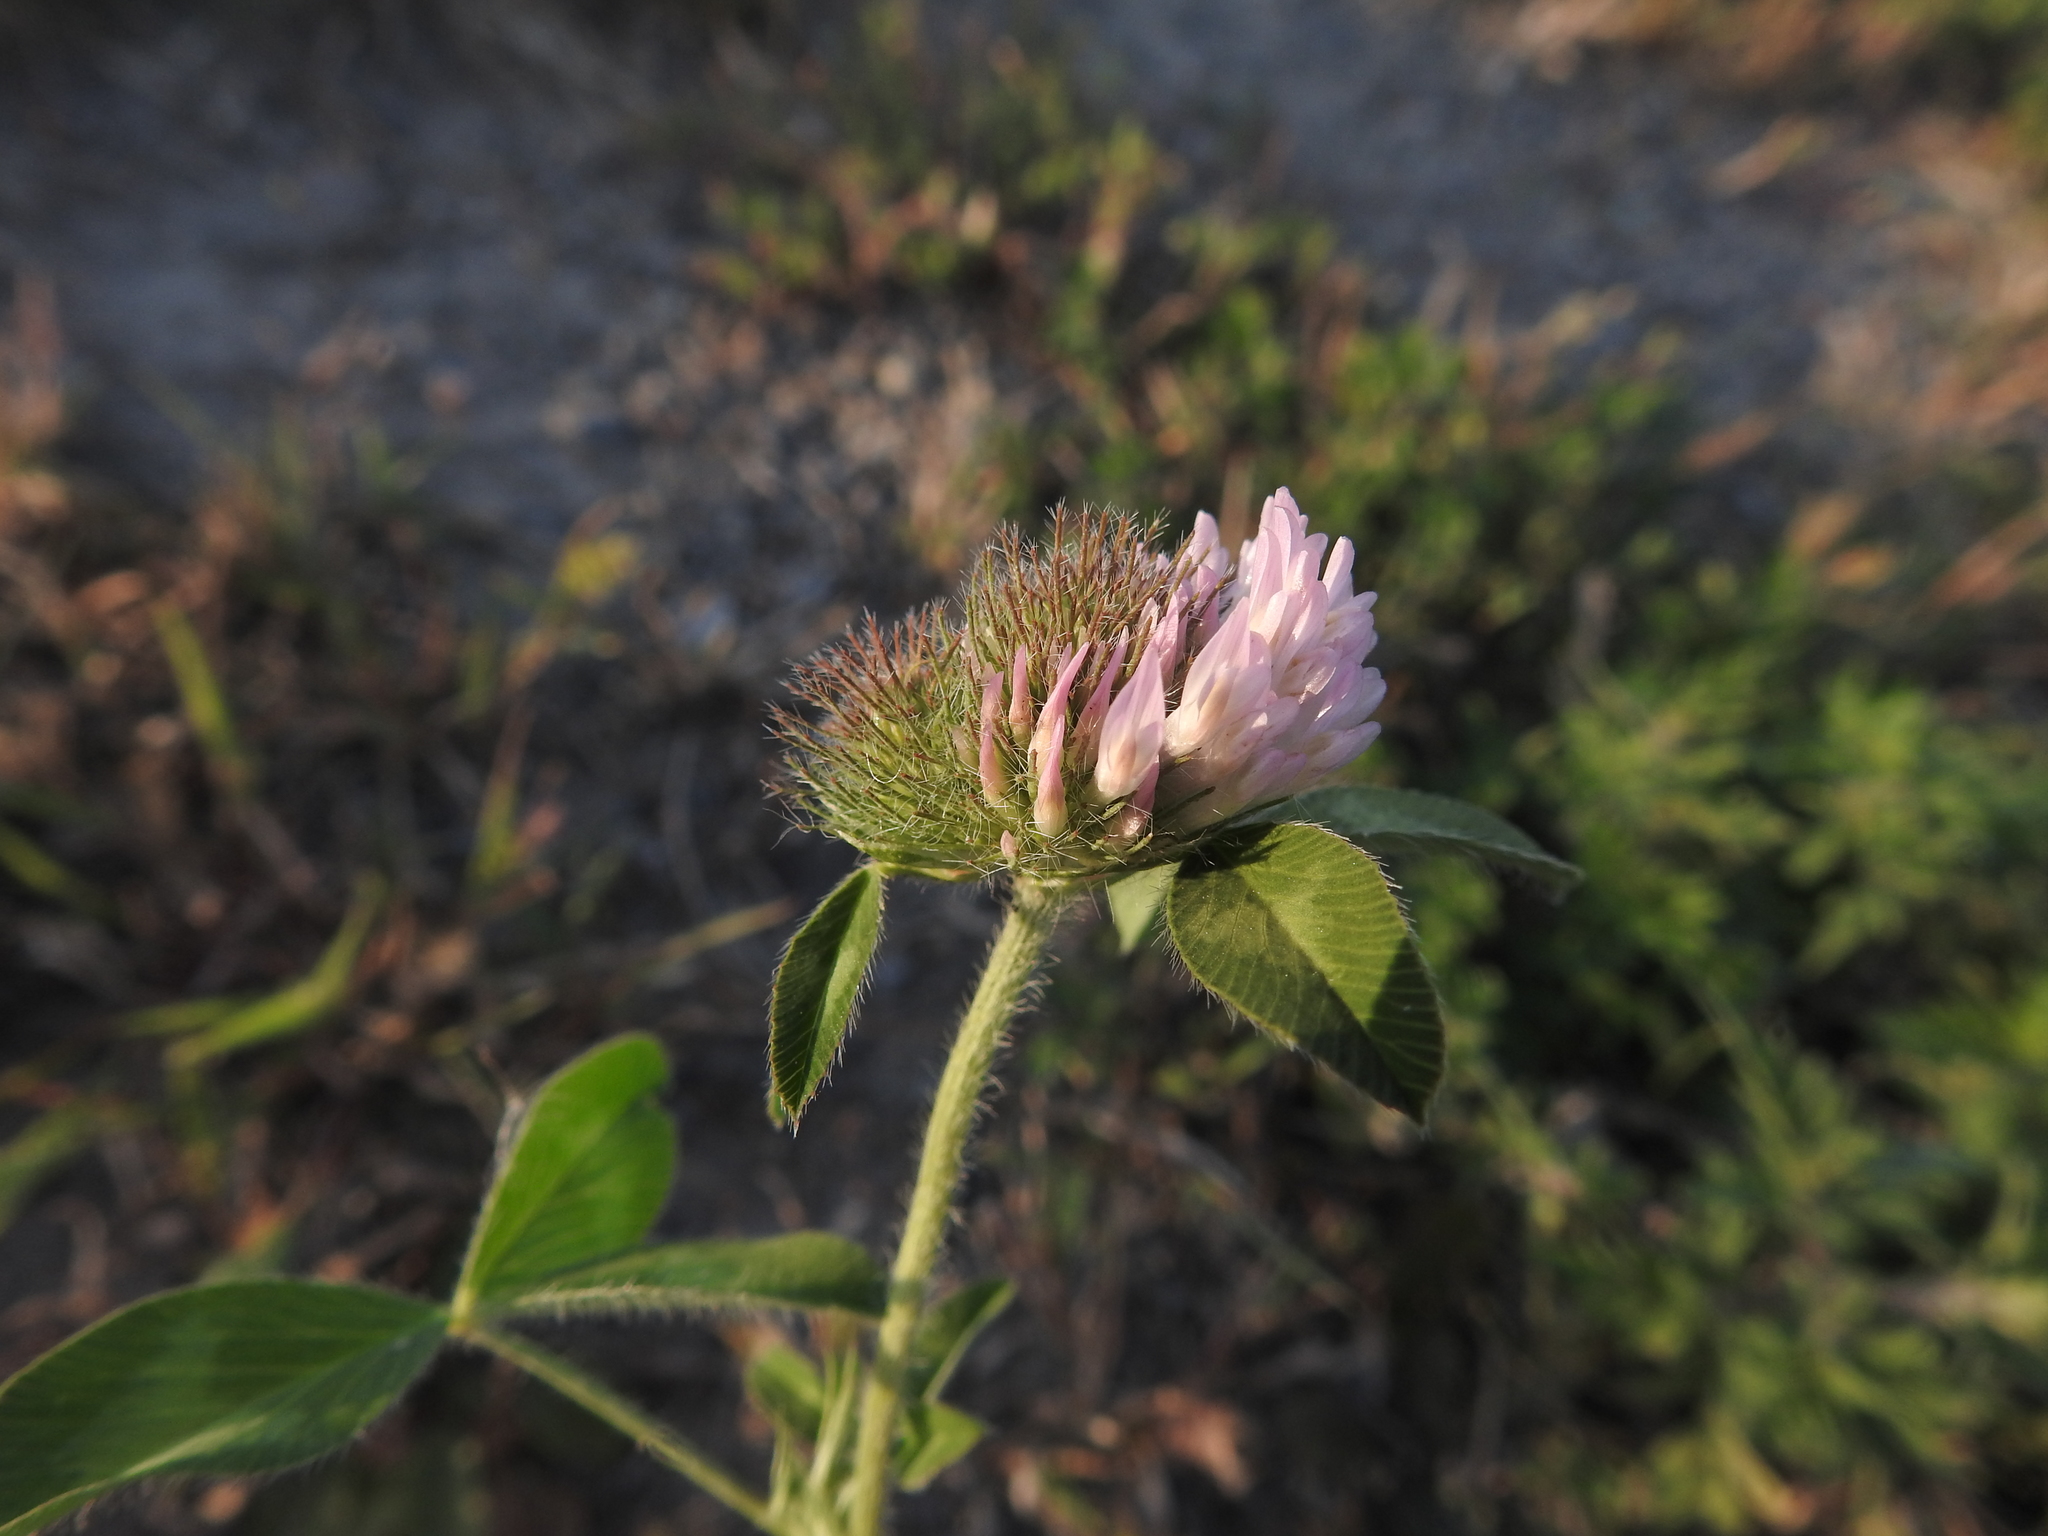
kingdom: Plantae
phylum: Tracheophyta
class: Magnoliopsida
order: Fabales
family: Fabaceae
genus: Trifolium
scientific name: Trifolium pratense
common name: Red clover
